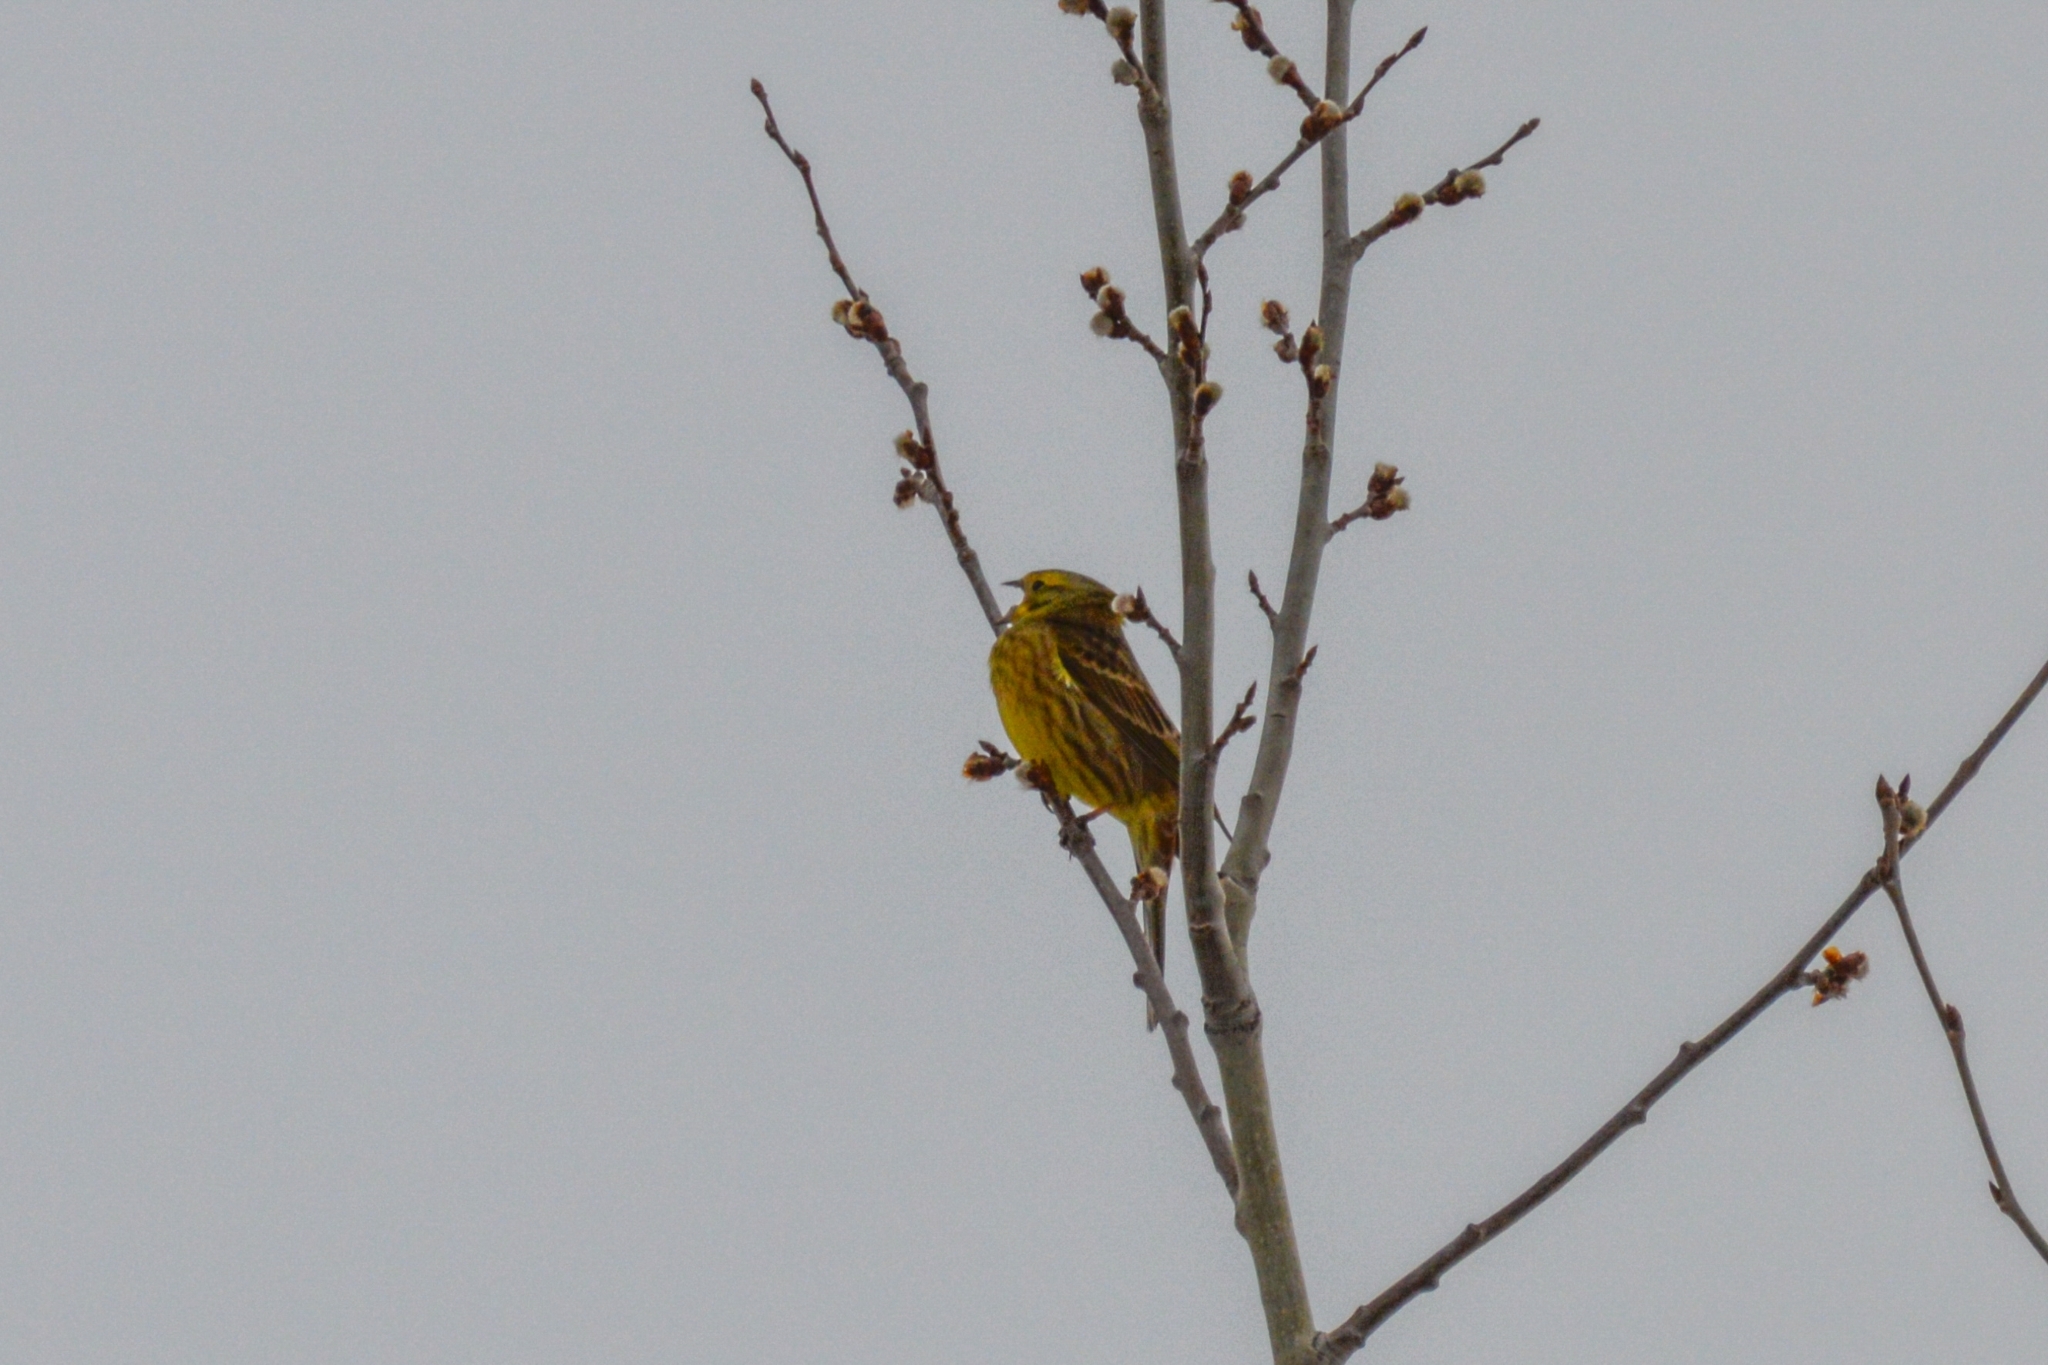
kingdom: Animalia
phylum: Chordata
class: Aves
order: Passeriformes
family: Emberizidae
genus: Emberiza
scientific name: Emberiza citrinella
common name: Yellowhammer
